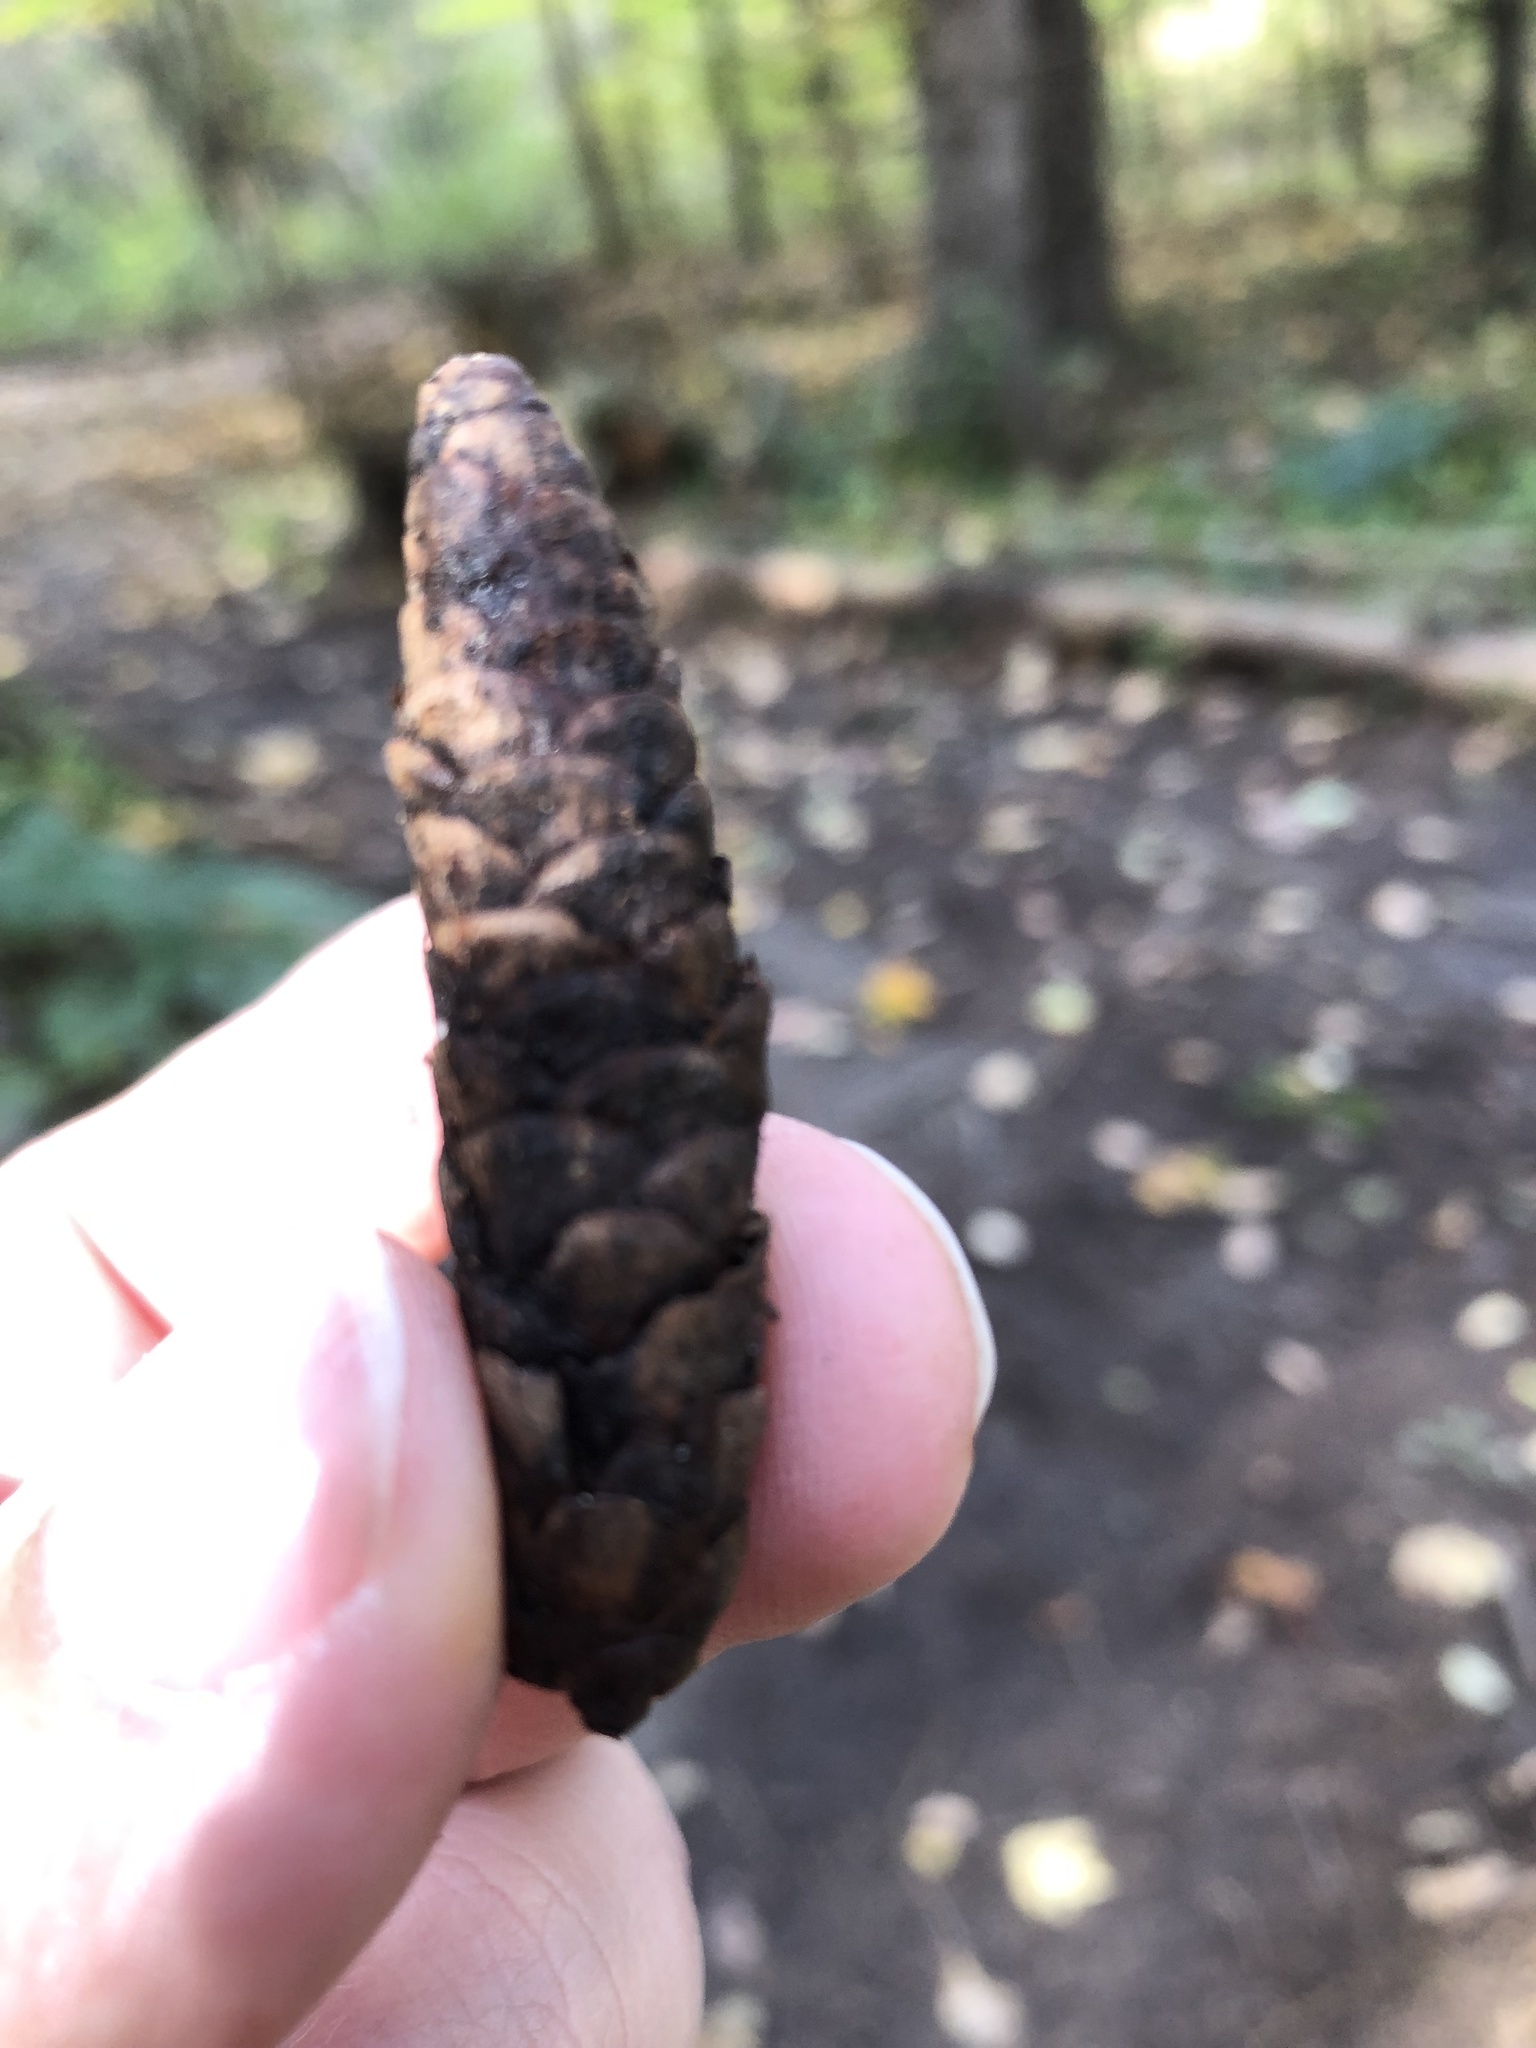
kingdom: Plantae
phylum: Tracheophyta
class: Pinopsida
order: Pinales
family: Pinaceae
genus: Picea
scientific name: Picea glauca
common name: White spruce
